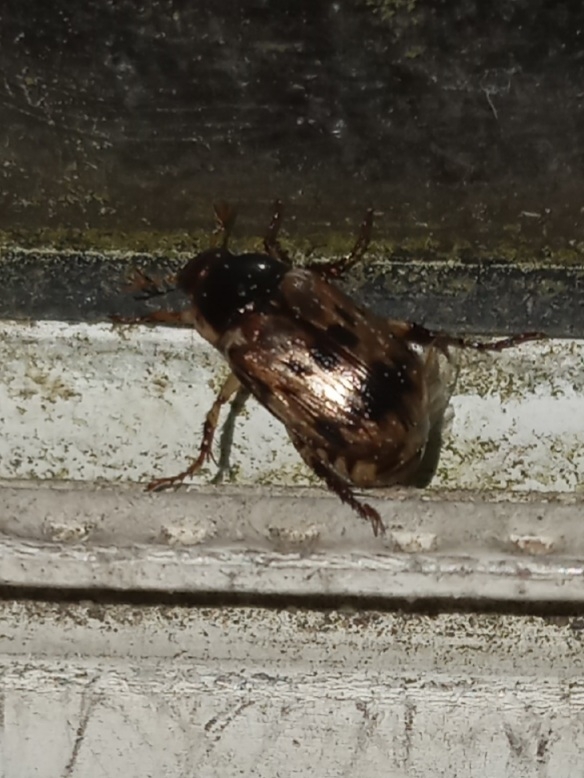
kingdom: Animalia
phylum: Arthropoda
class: Insecta
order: Coleoptera
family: Scarabaeidae
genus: Paranomala
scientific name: Paranomala undulata
